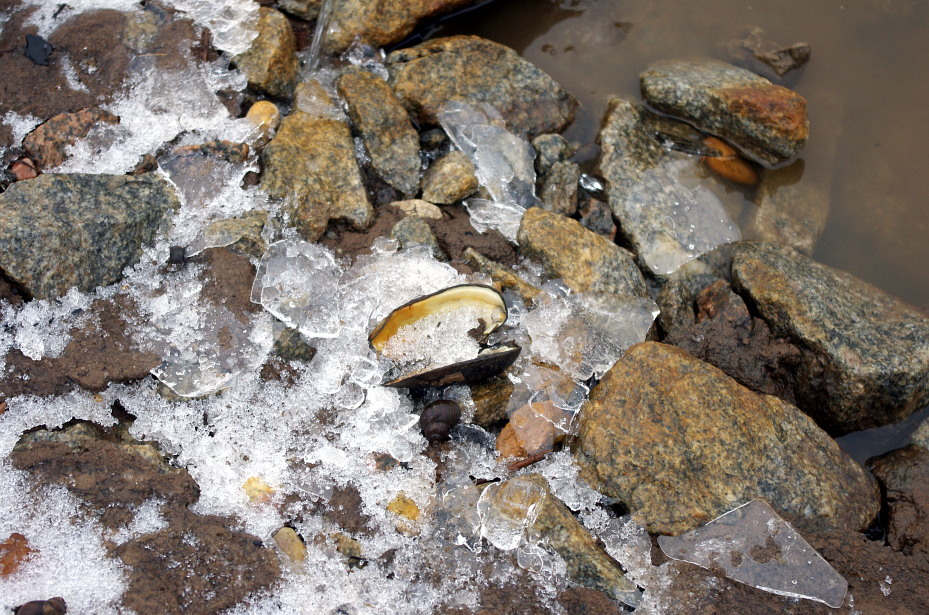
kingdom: Animalia
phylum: Mollusca
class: Gastropoda
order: Architaenioglossa
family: Viviparidae
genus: Viviparus
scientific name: Viviparus viviparus
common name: River snail
